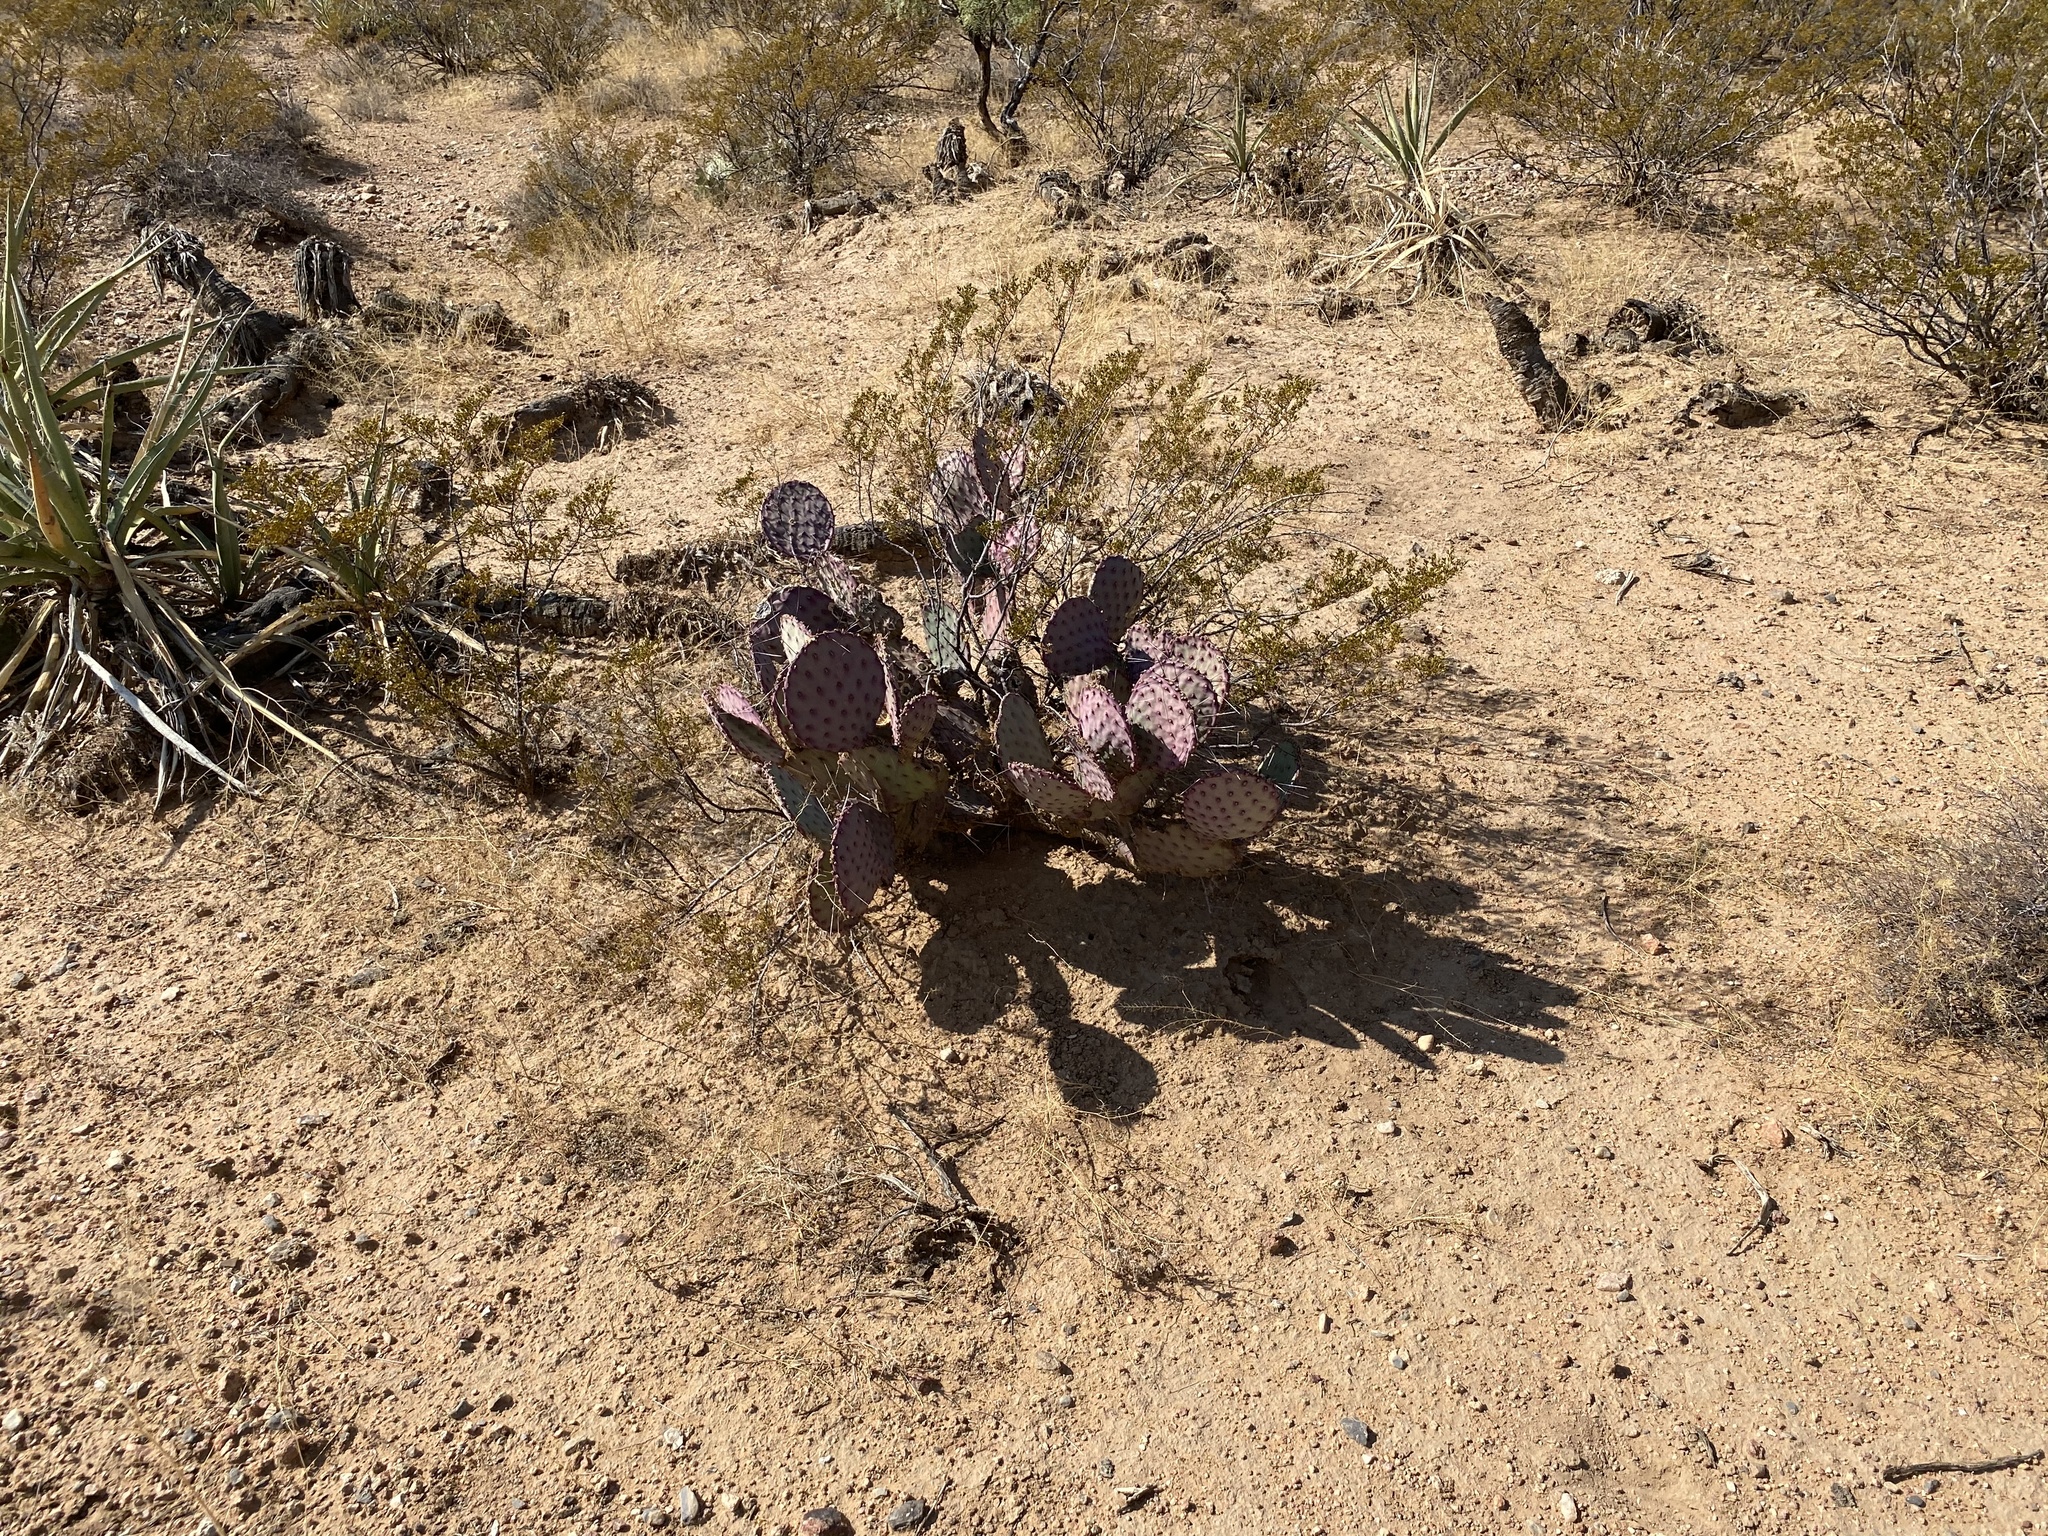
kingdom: Plantae
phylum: Tracheophyta
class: Magnoliopsida
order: Caryophyllales
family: Cactaceae
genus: Opuntia
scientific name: Opuntia macrocentra
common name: Purple prickly-pear
